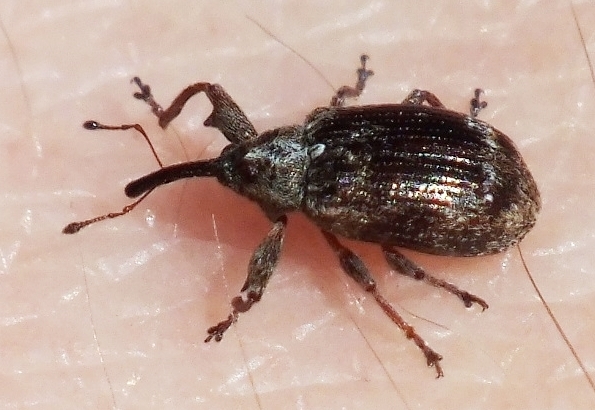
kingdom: Animalia
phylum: Arthropoda
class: Insecta
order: Coleoptera
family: Curculionidae
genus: Anthonomus
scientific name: Anthonomus pomorum
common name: Apple-blossom weevil
